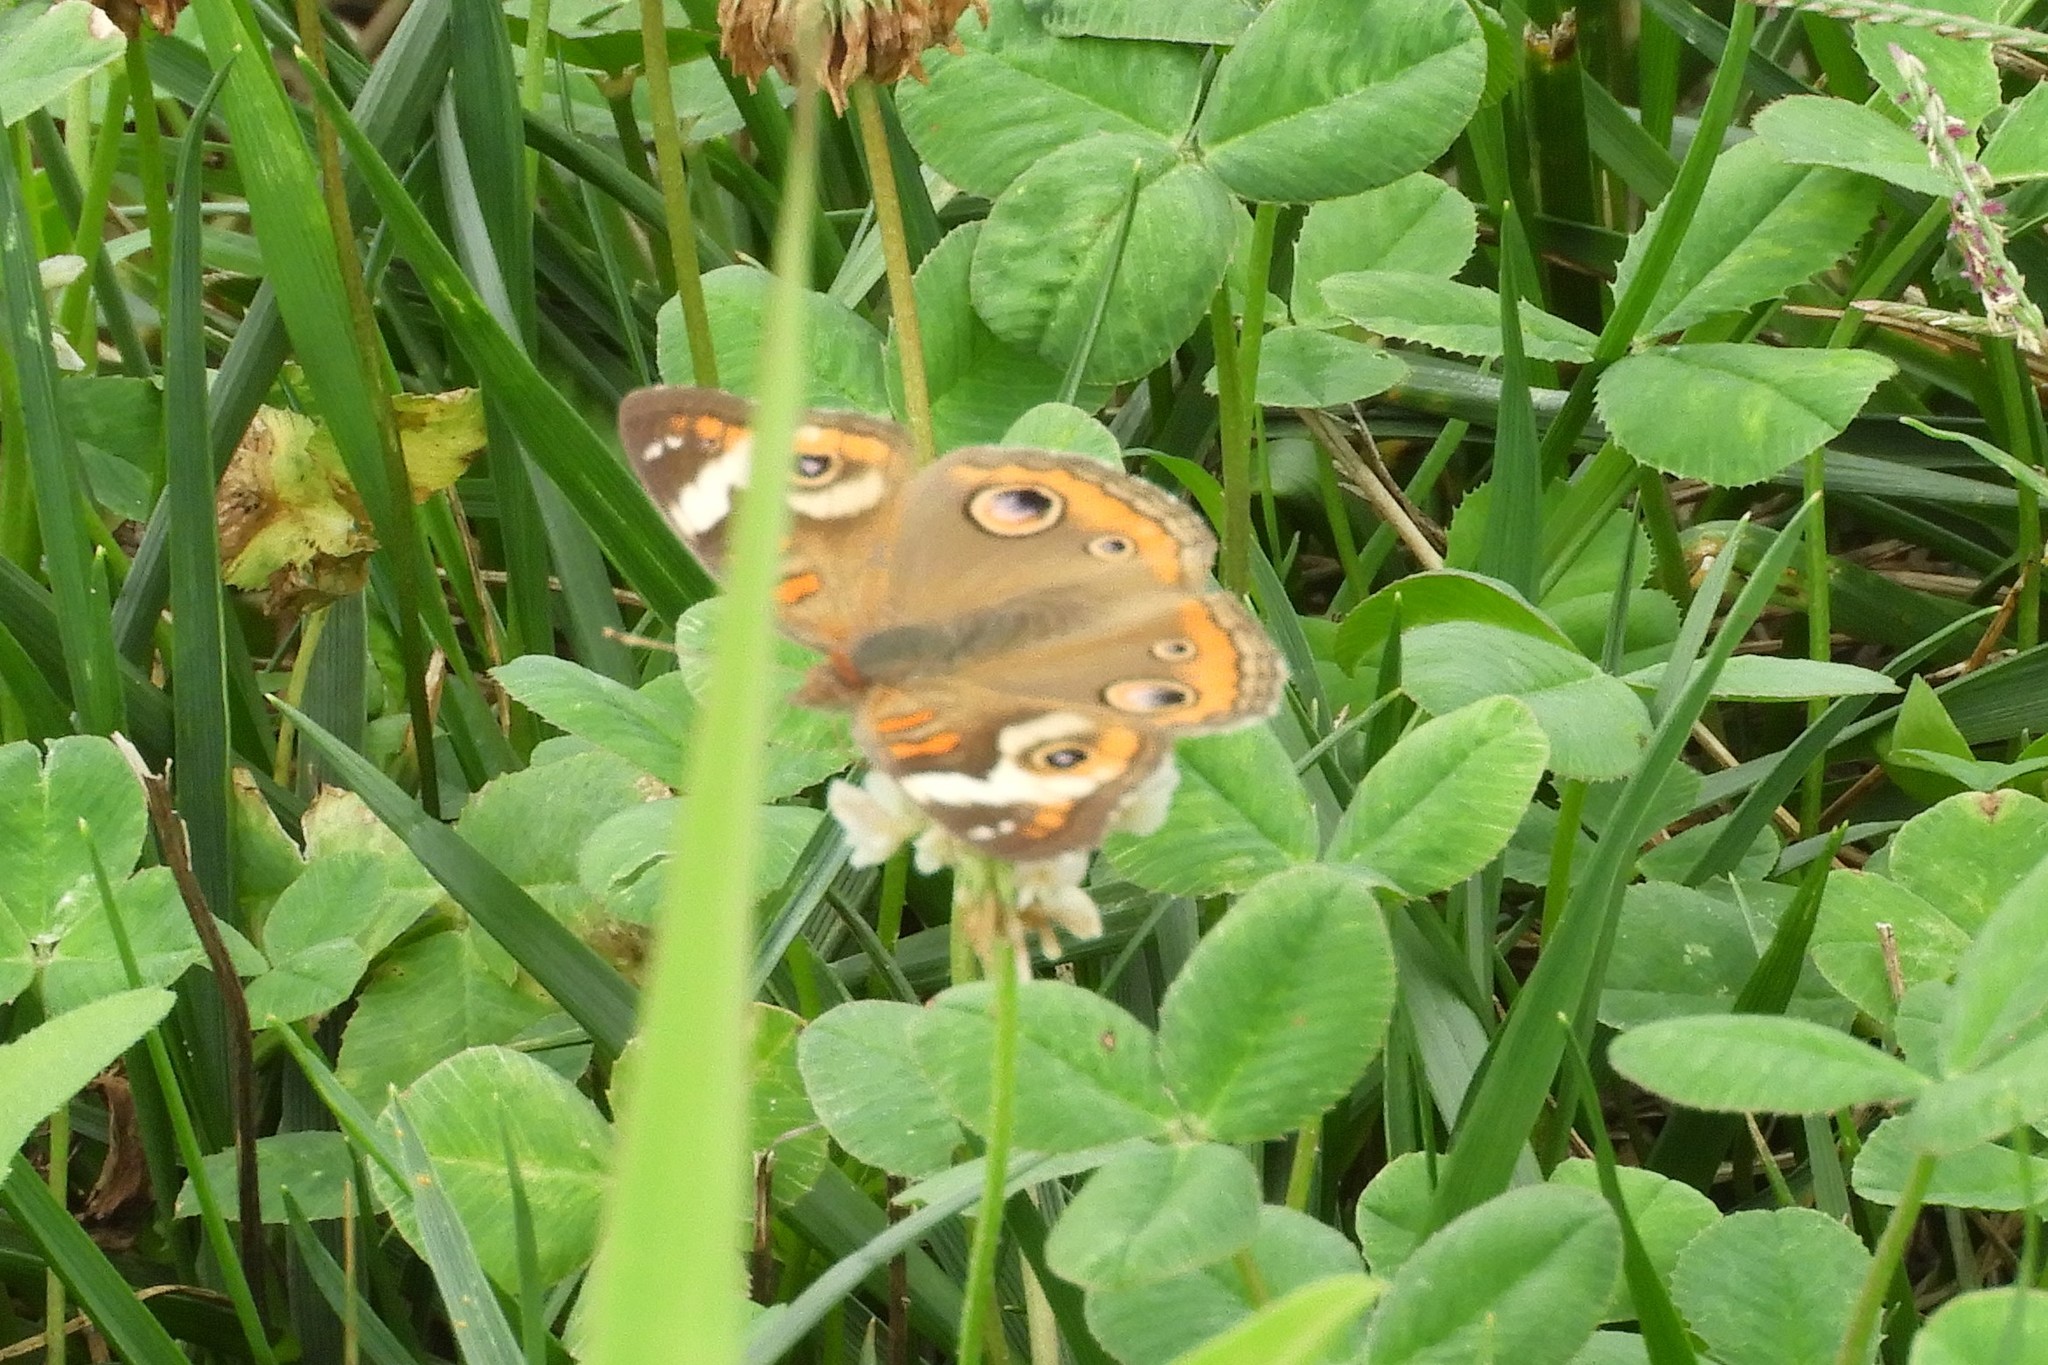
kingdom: Animalia
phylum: Arthropoda
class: Insecta
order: Lepidoptera
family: Nymphalidae
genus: Junonia
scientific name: Junonia coenia
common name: Common buckeye
